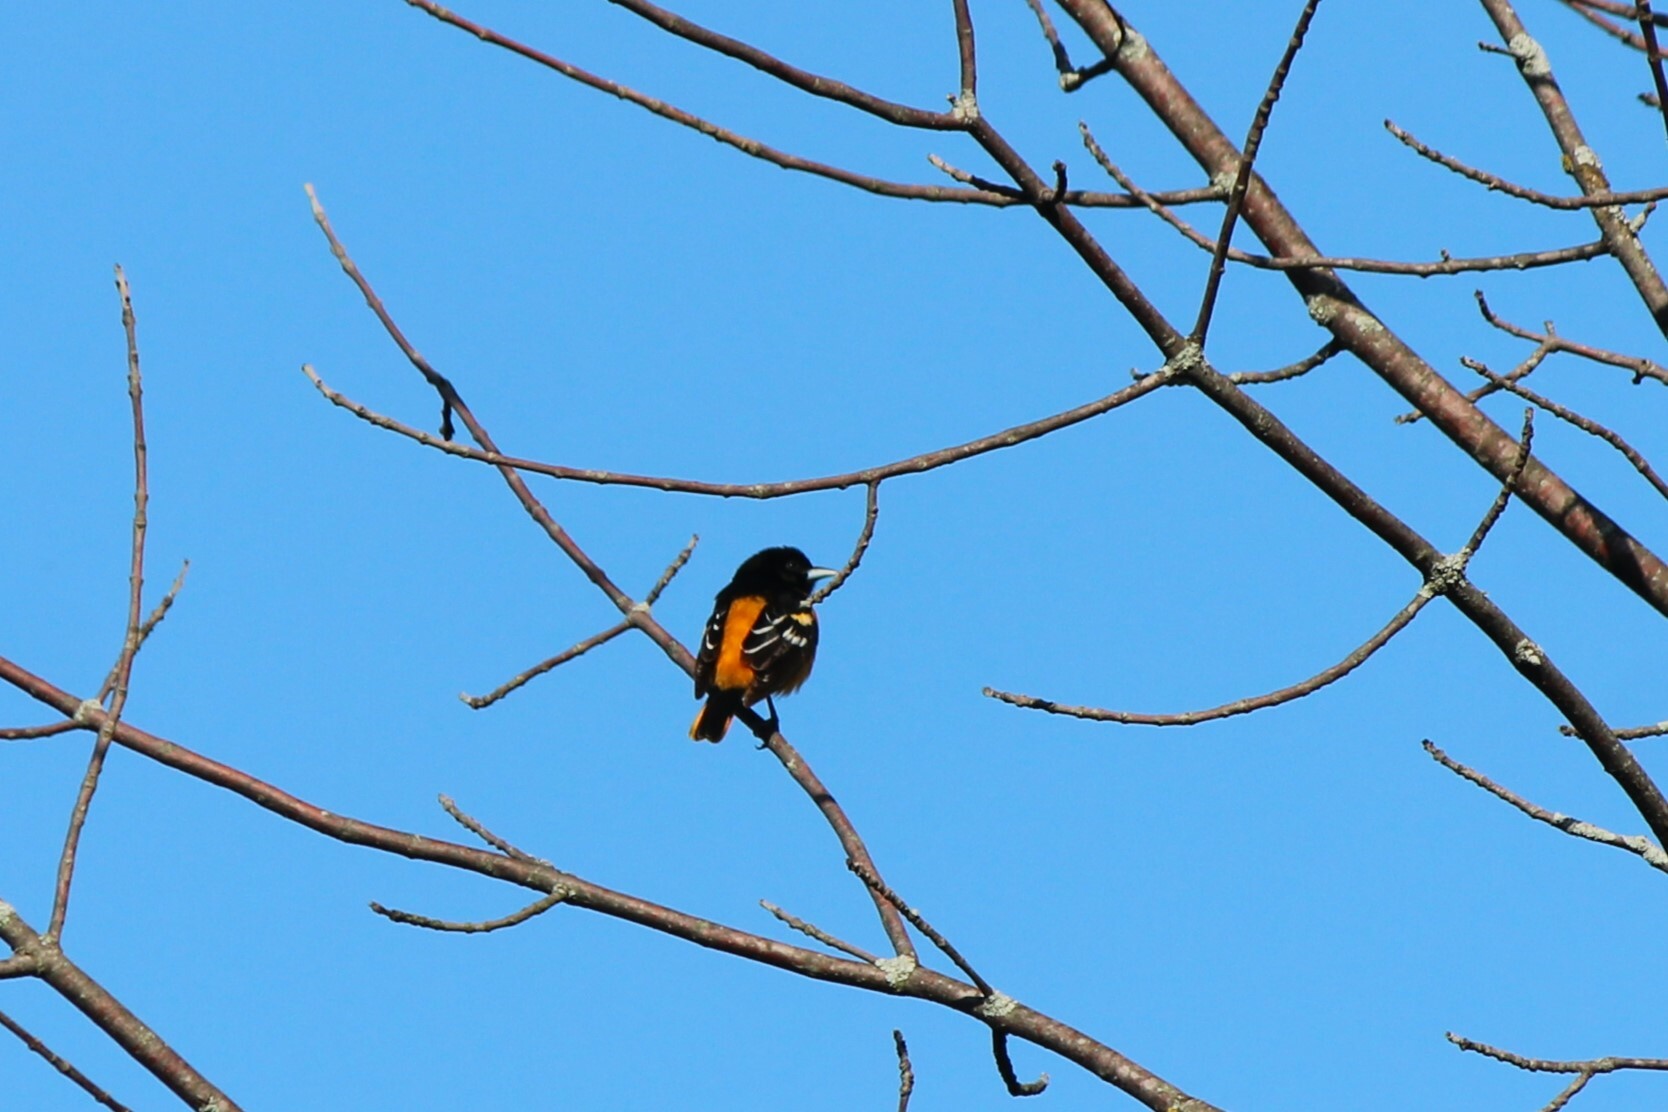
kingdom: Animalia
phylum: Chordata
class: Aves
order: Passeriformes
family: Icteridae
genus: Icterus
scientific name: Icterus galbula
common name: Baltimore oriole
